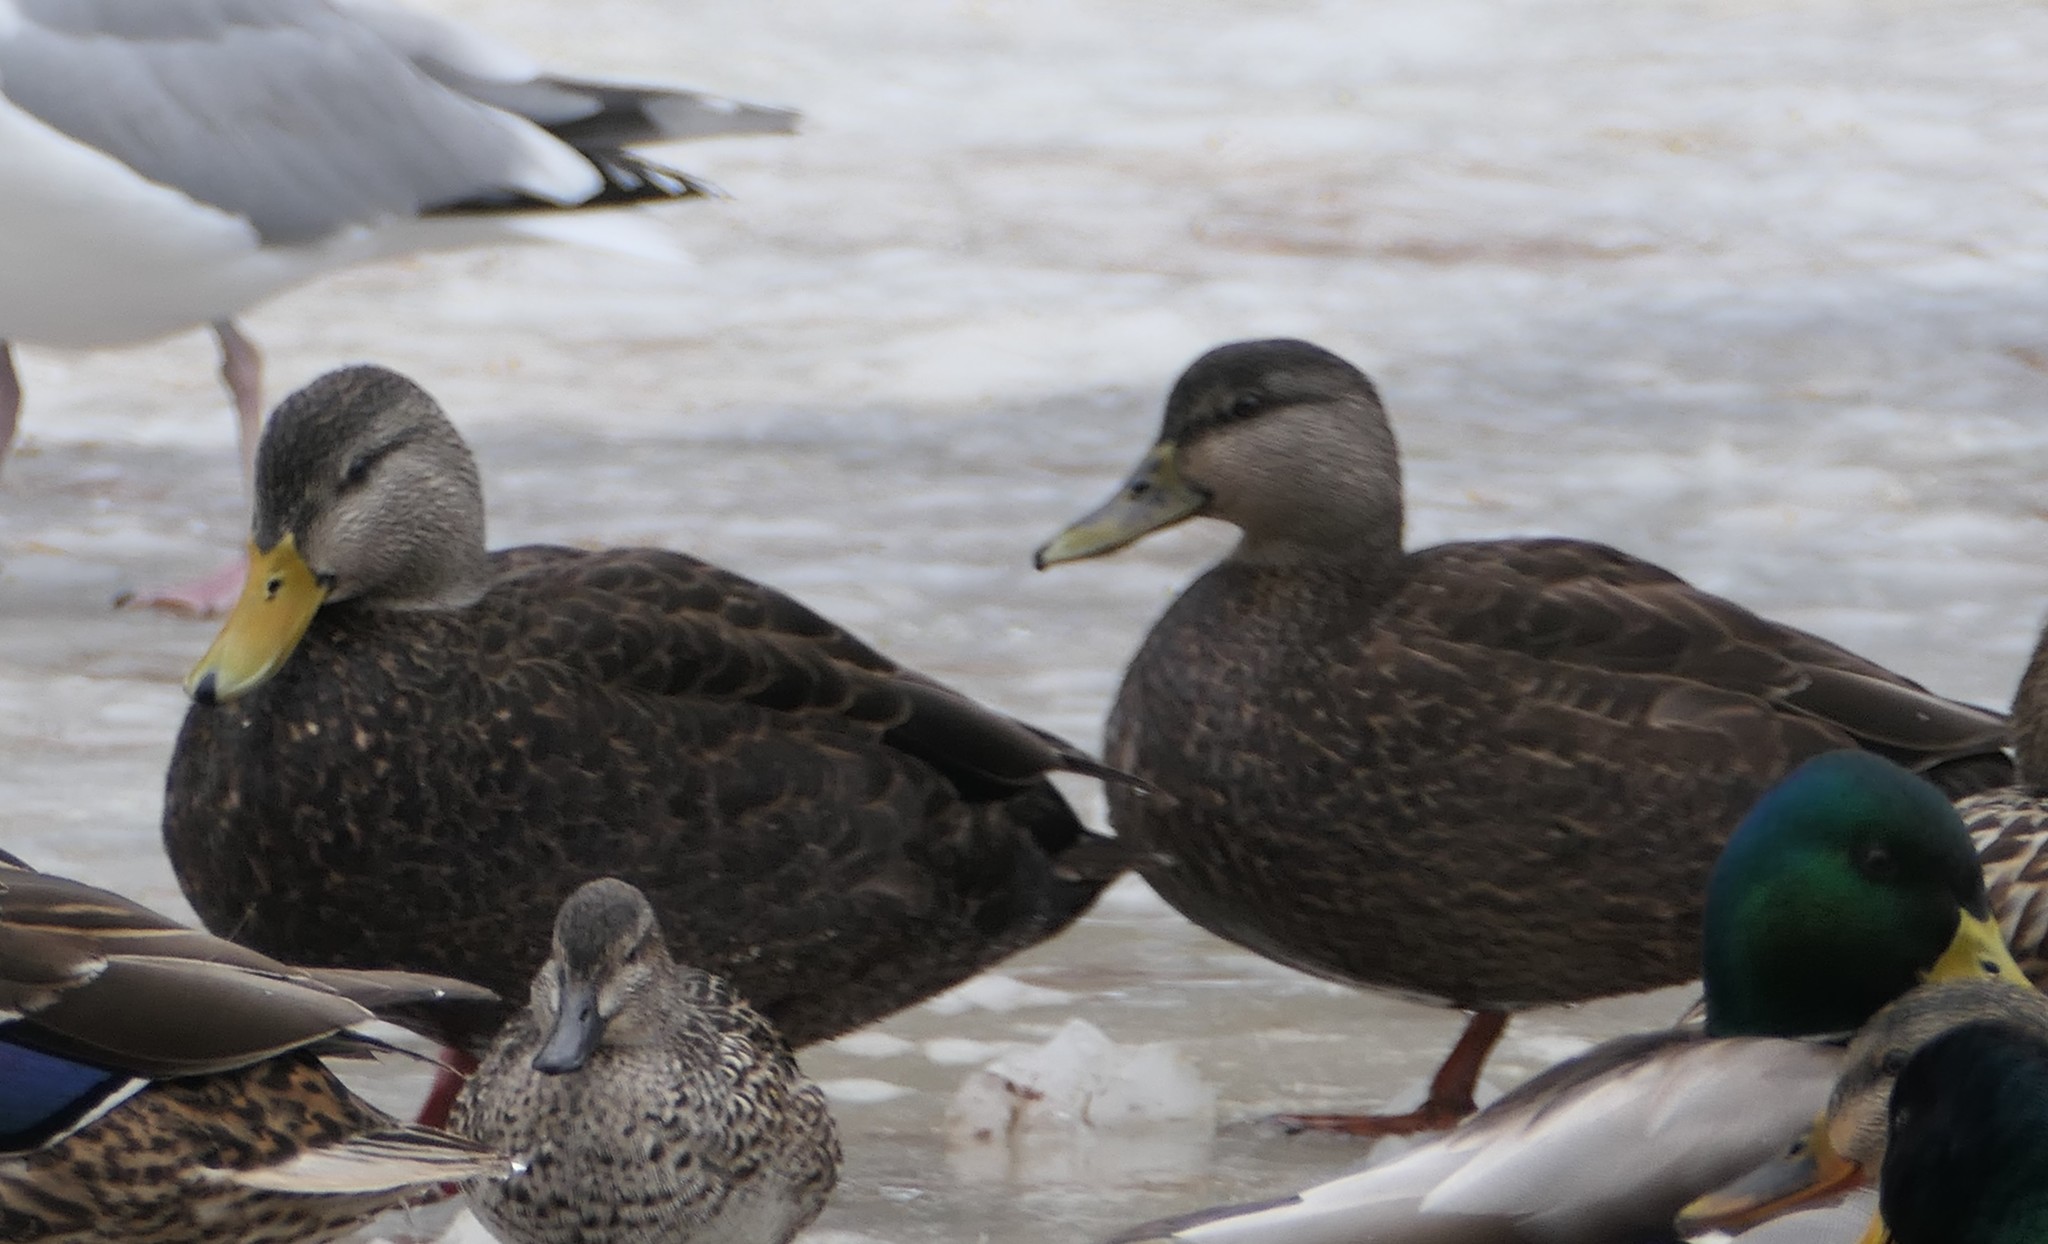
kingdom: Animalia
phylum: Chordata
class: Aves
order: Anseriformes
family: Anatidae
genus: Anas
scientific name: Anas rubripes
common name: American black duck
